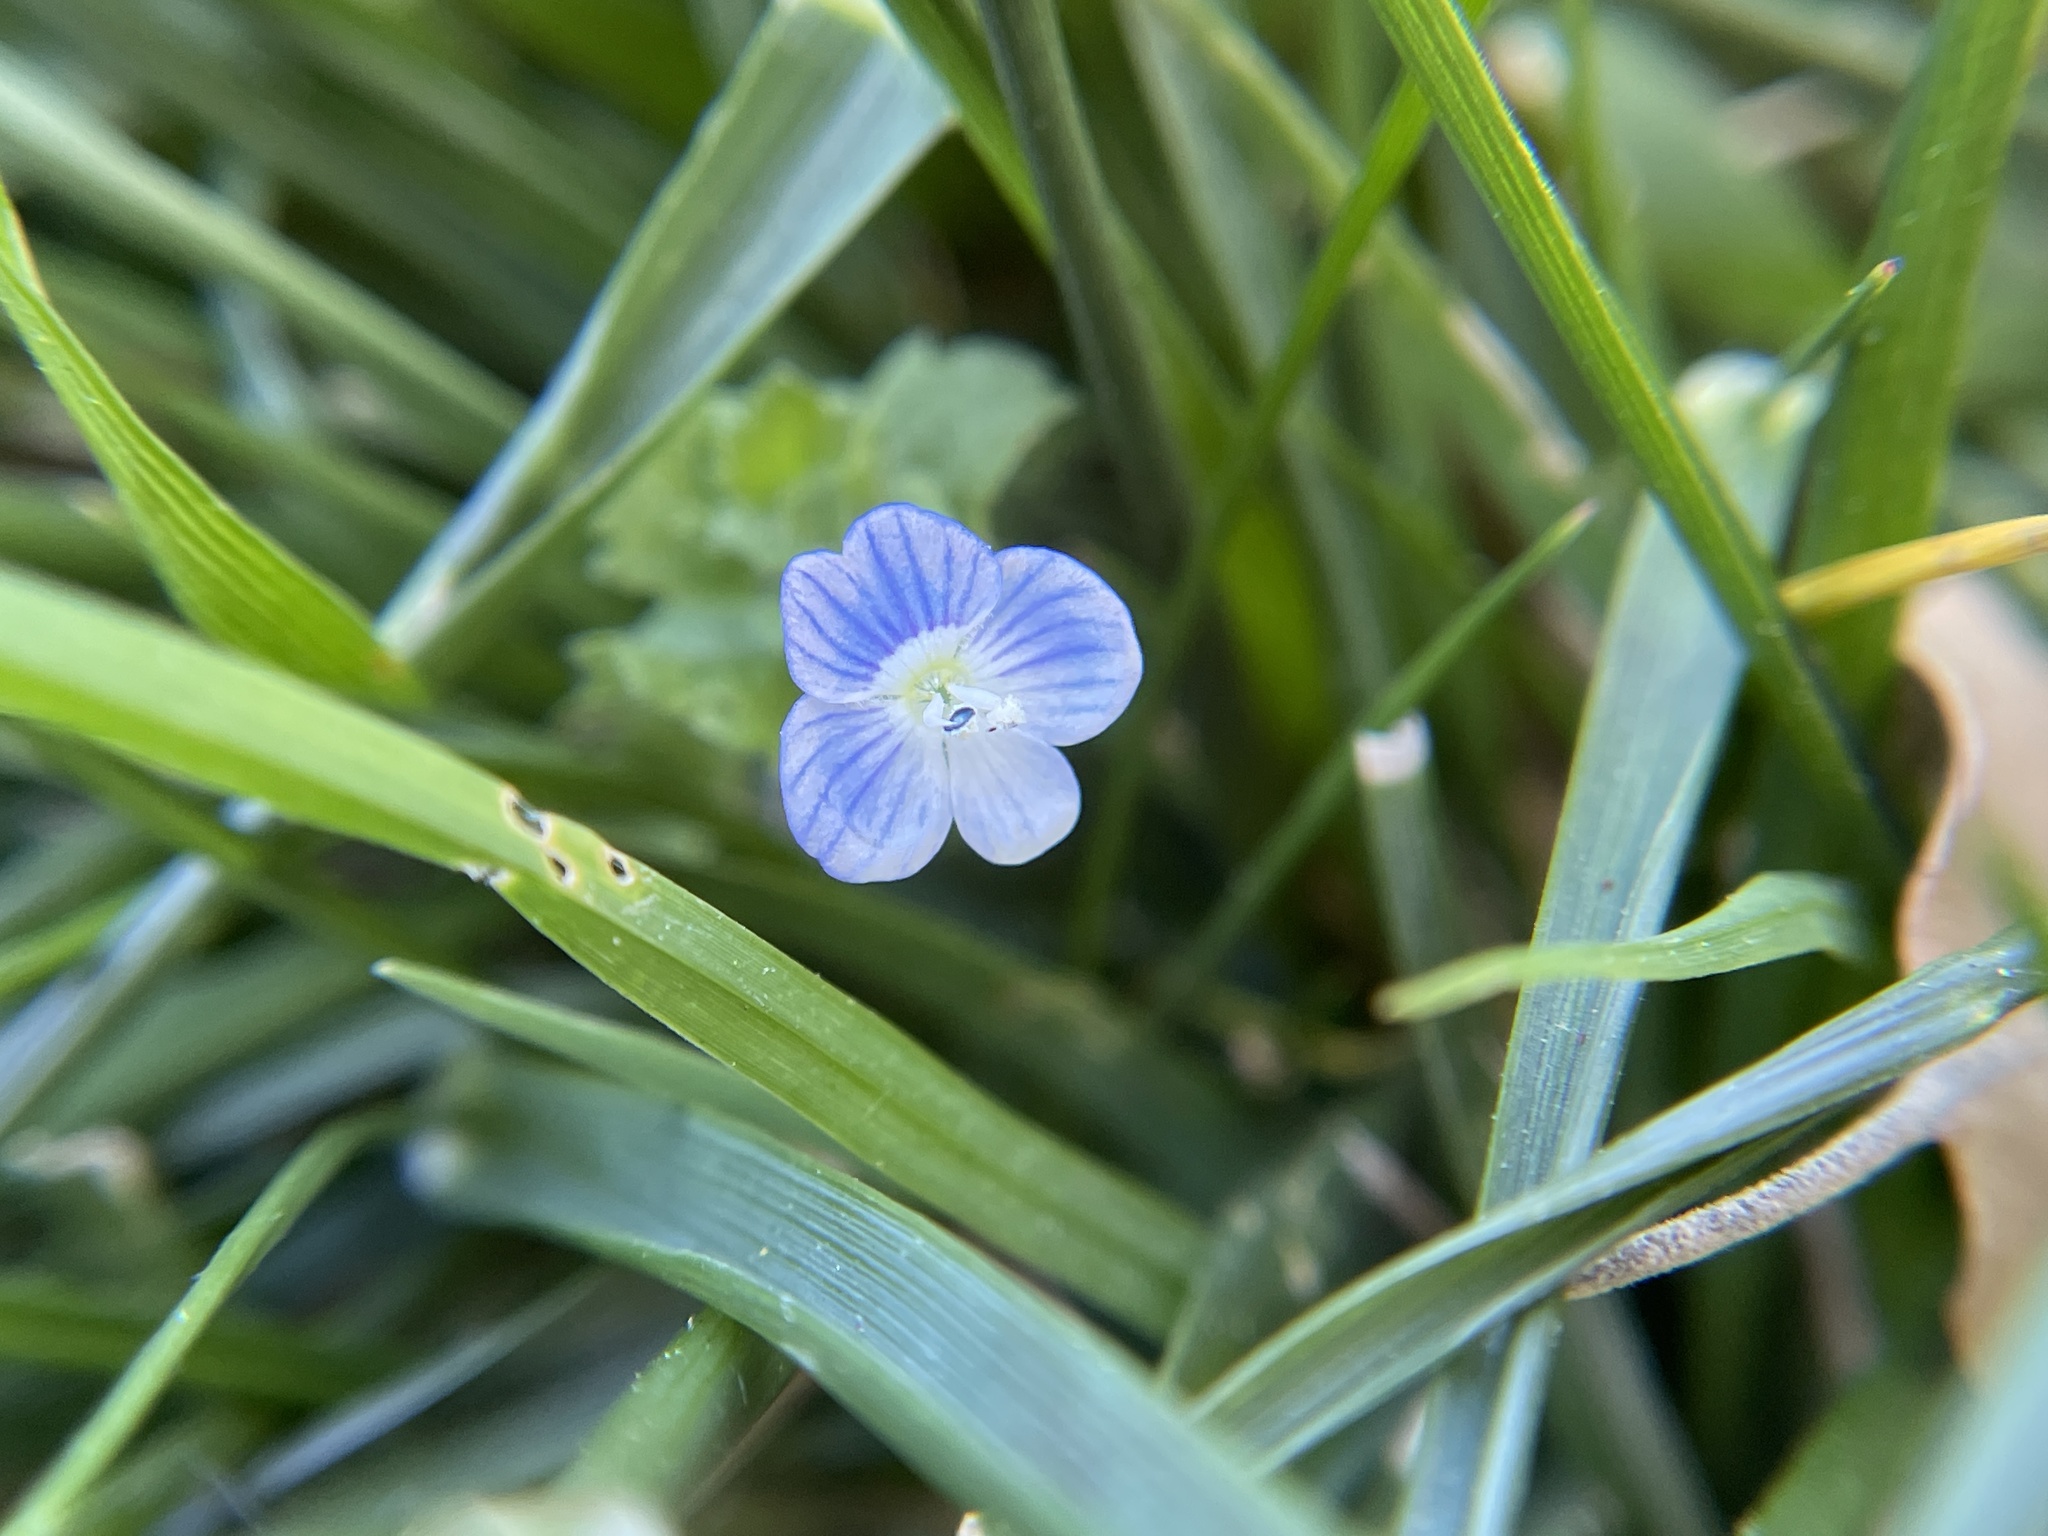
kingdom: Plantae
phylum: Tracheophyta
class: Magnoliopsida
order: Lamiales
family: Plantaginaceae
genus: Veronica
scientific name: Veronica persica
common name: Common field-speedwell
